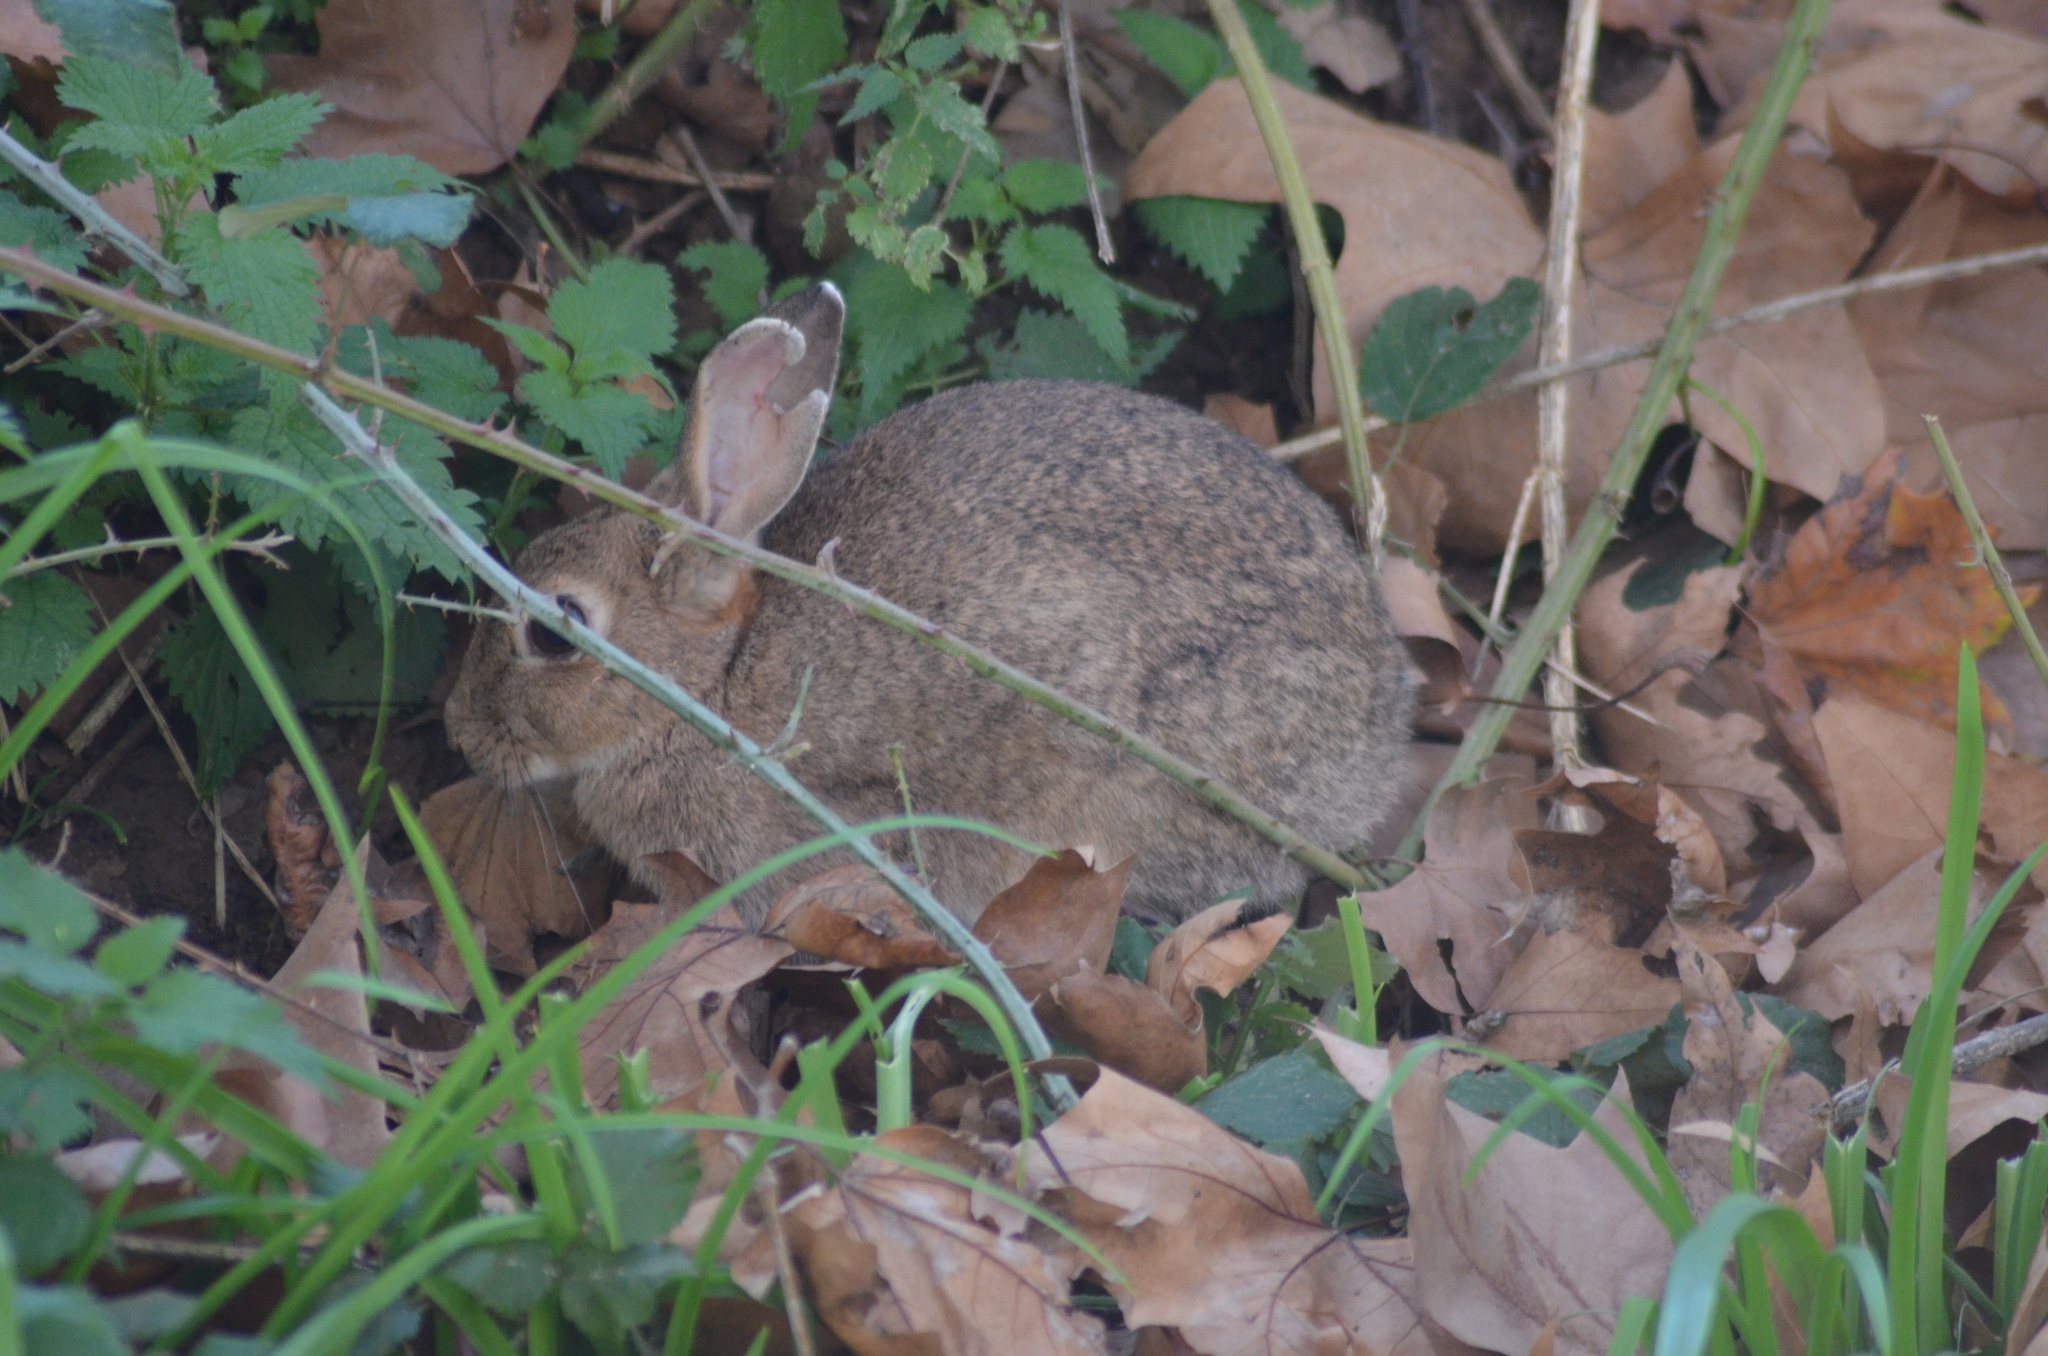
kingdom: Animalia
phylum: Chordata
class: Mammalia
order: Lagomorpha
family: Leporidae
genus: Oryctolagus
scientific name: Oryctolagus cuniculus
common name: European rabbit
